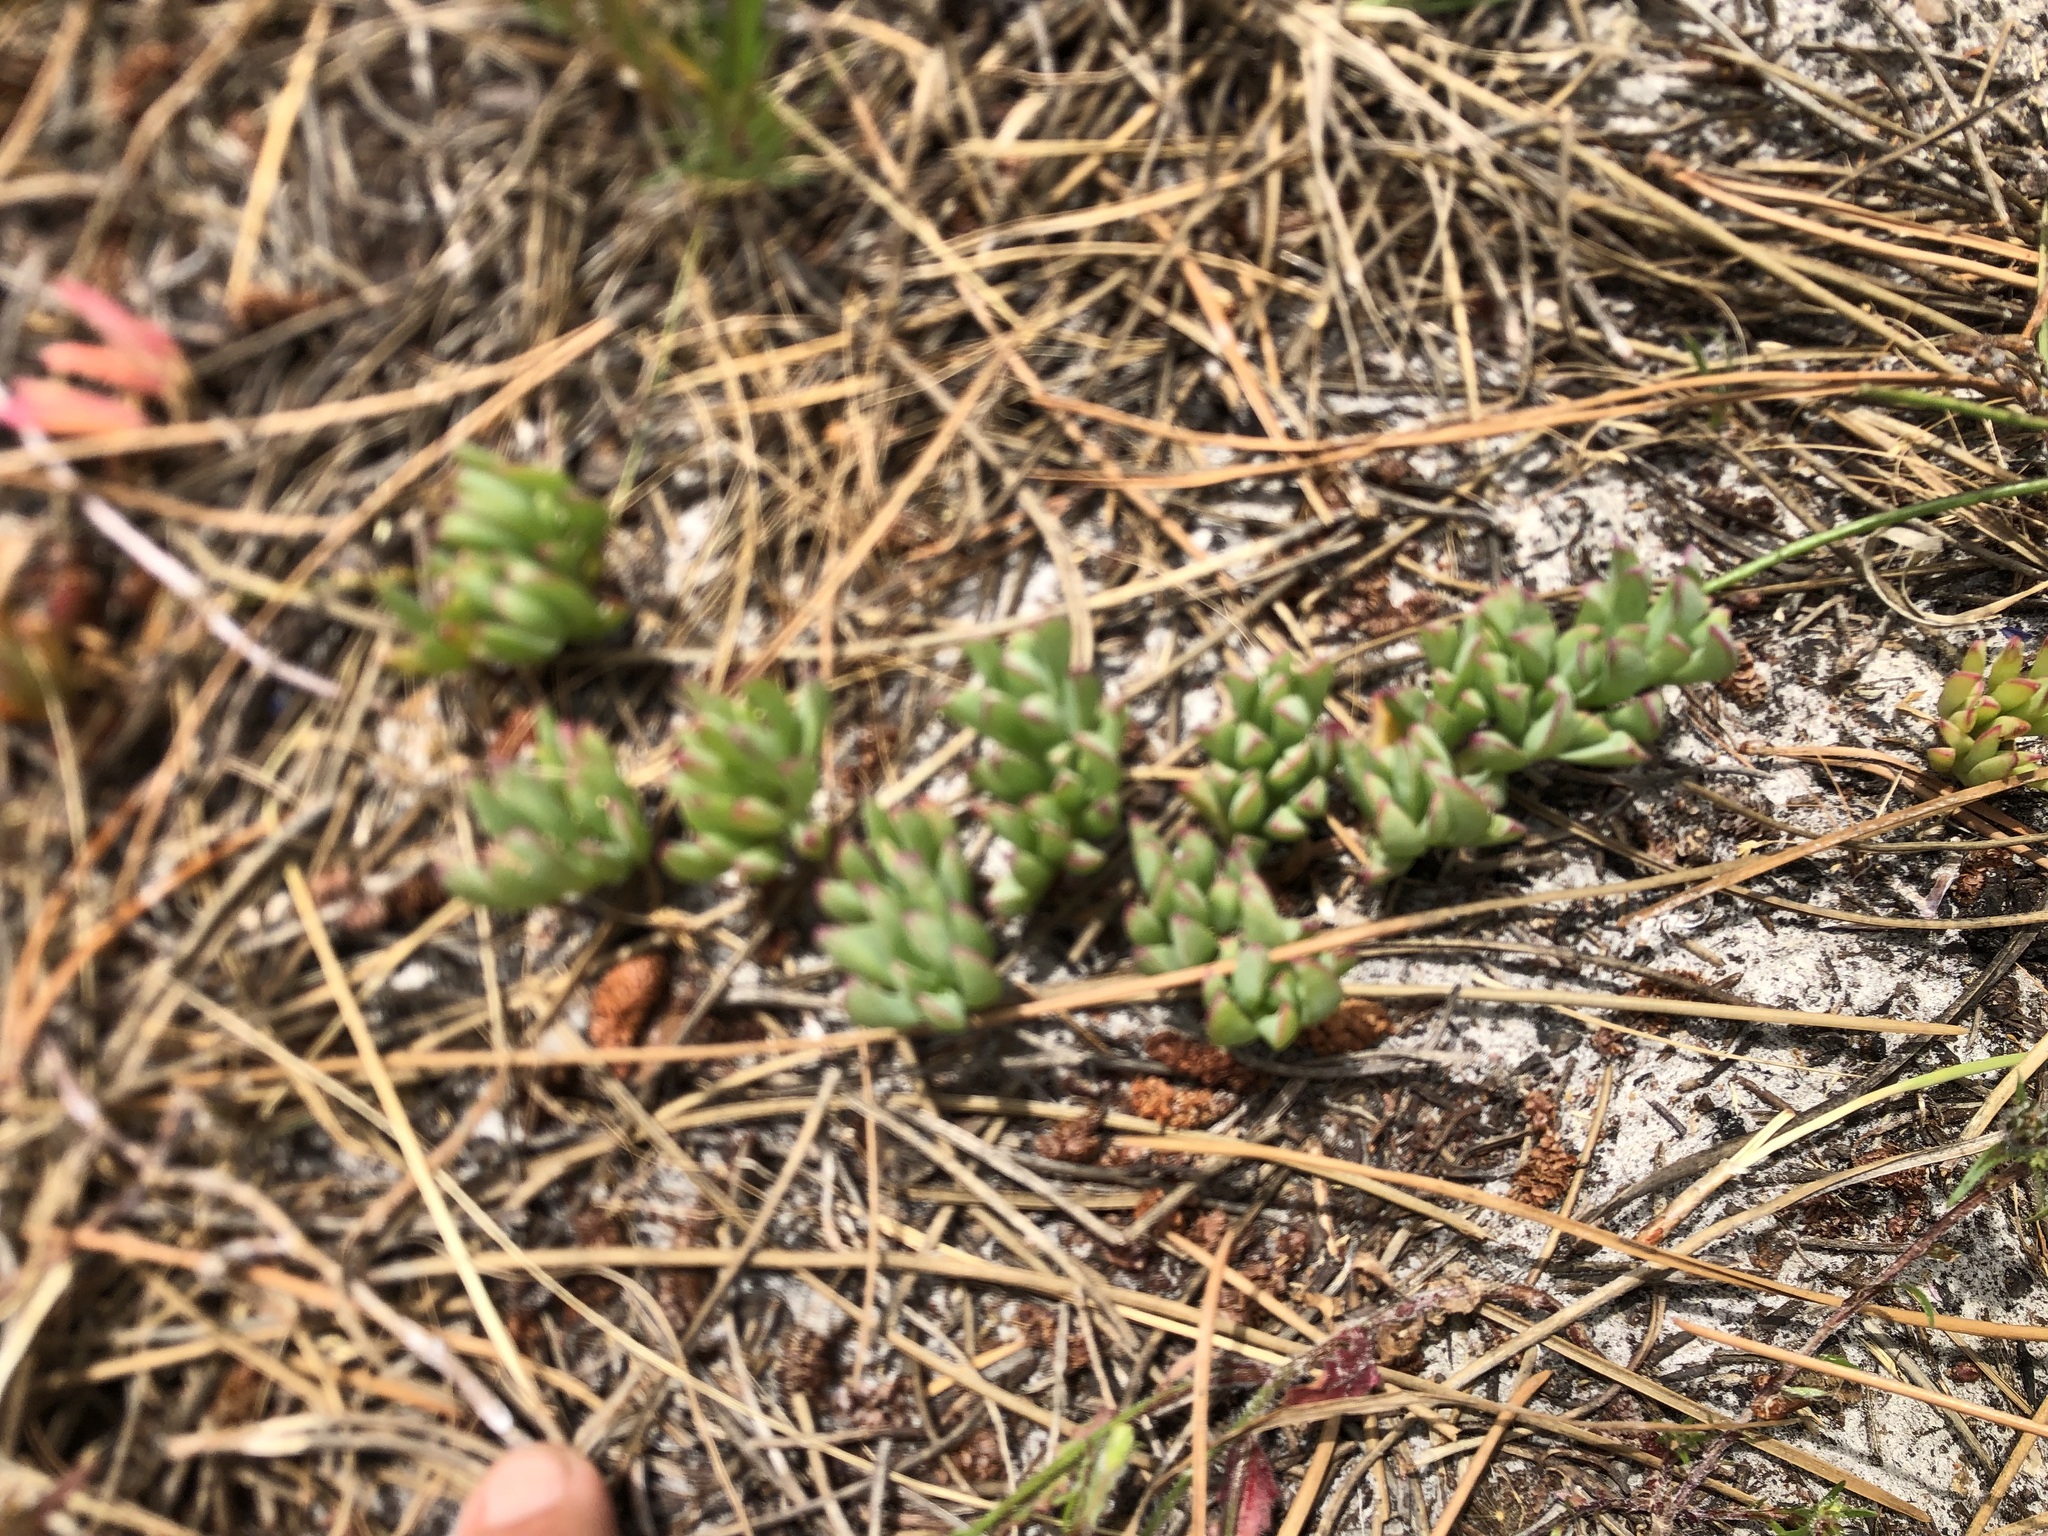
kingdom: Plantae
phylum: Tracheophyta
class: Magnoliopsida
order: Caryophyllales
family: Aizoaceae
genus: Lampranthus
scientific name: Lampranthus reptans
